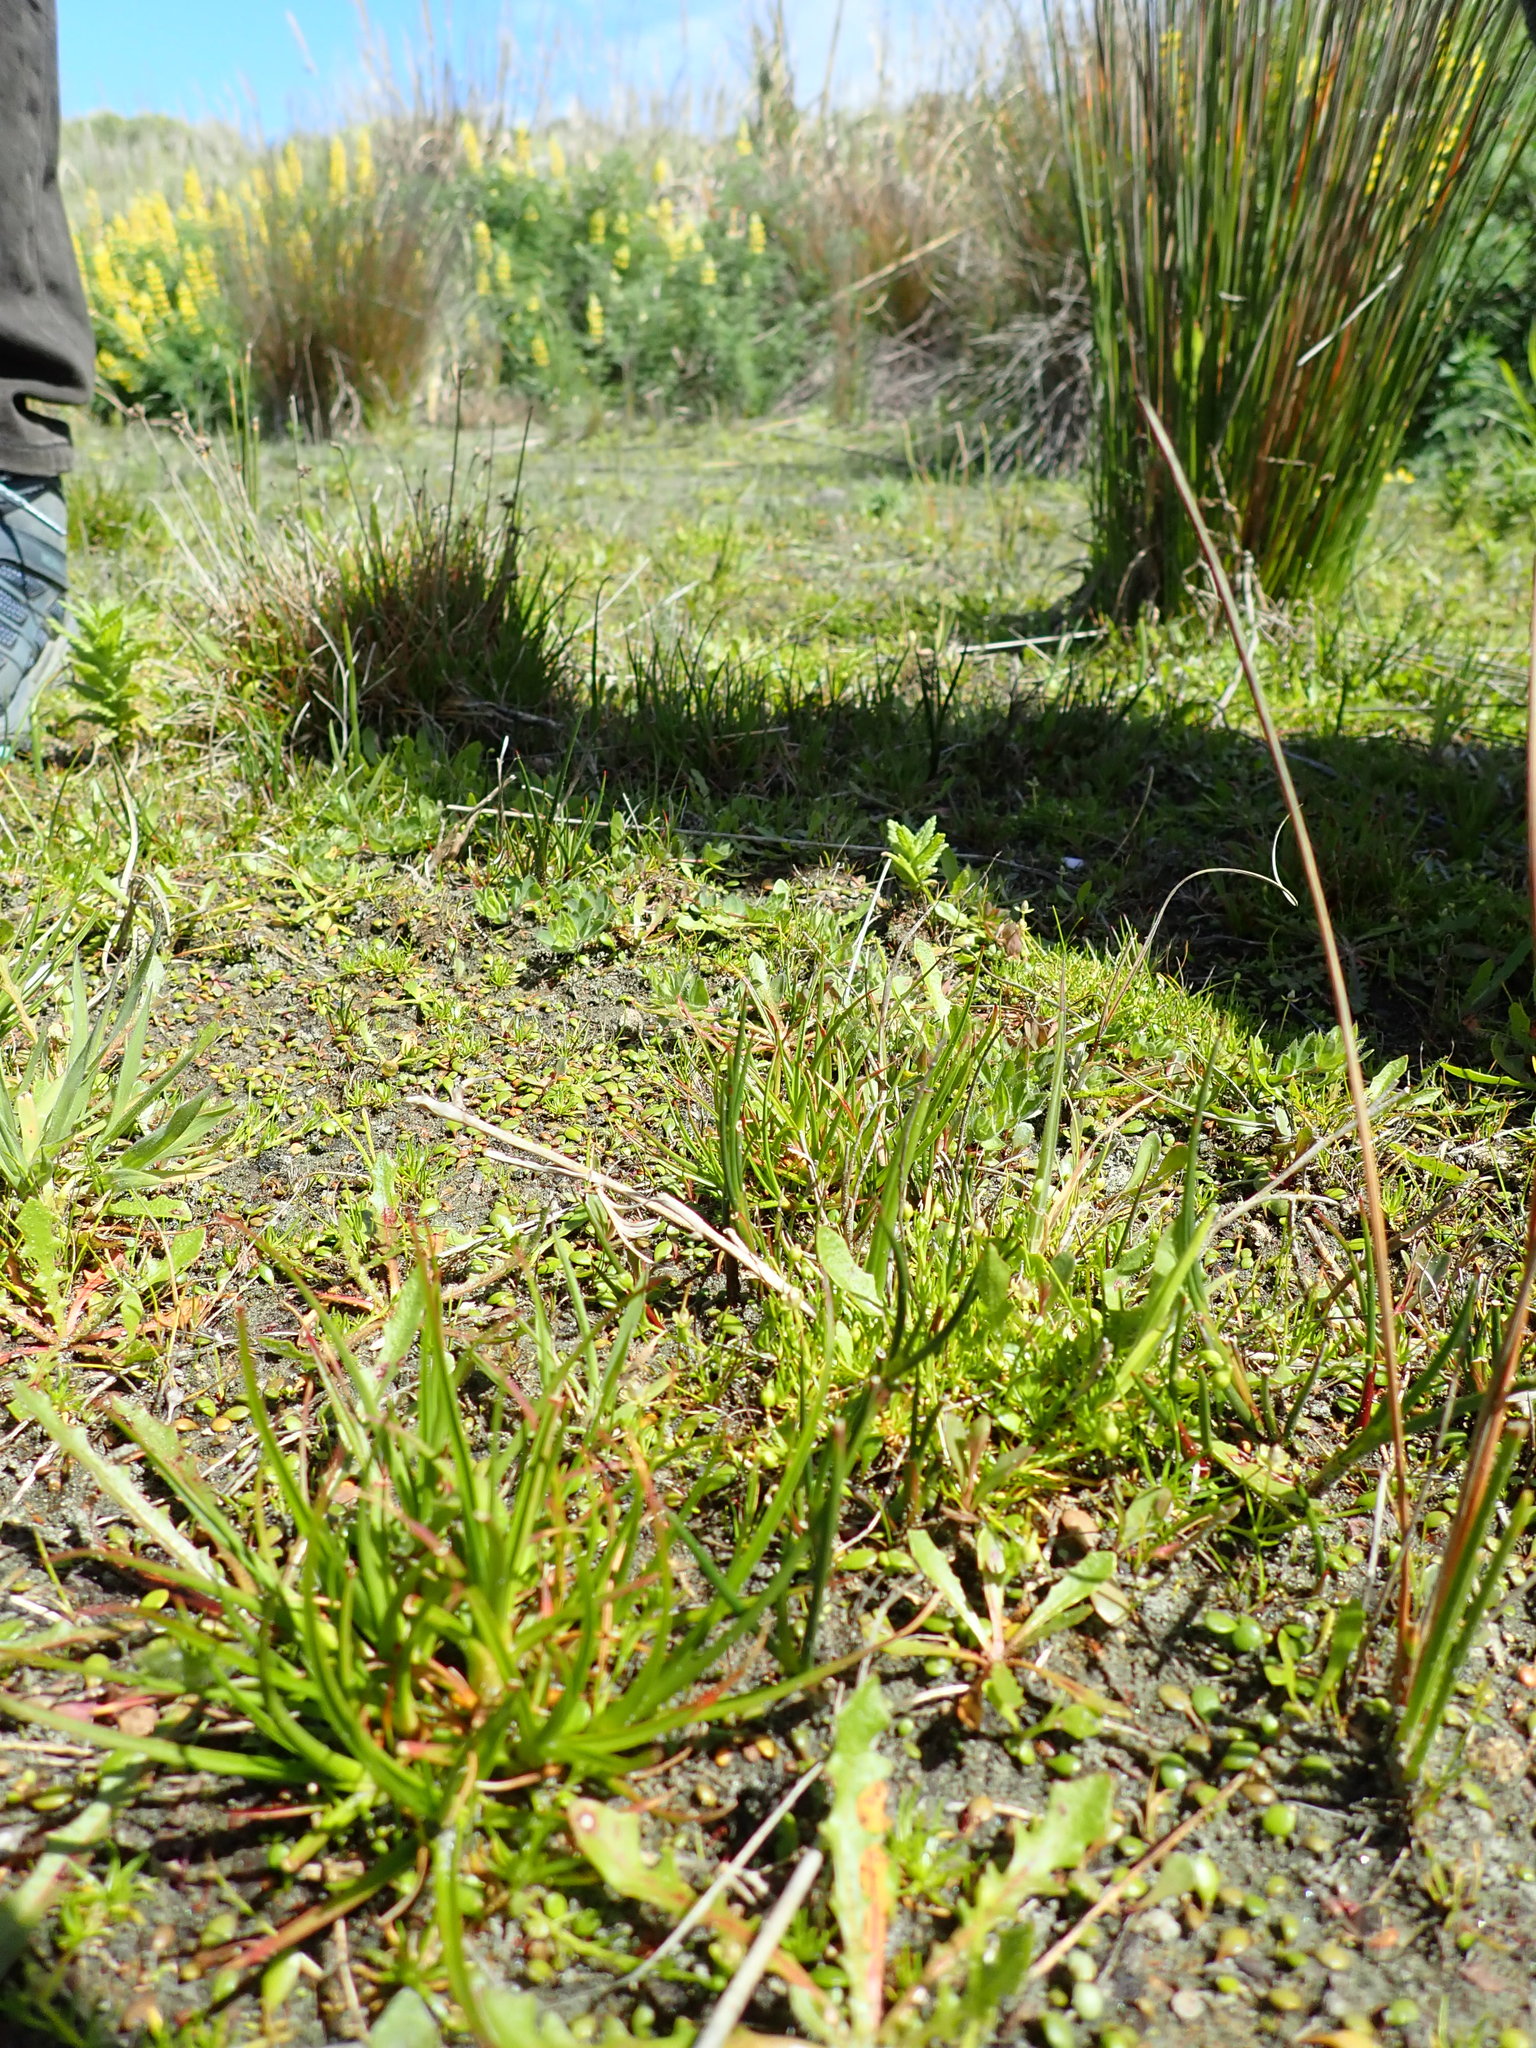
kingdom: Plantae
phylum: Tracheophyta
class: Liliopsida
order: Poales
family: Juncaceae
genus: Juncus
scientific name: Juncus caespiticius
